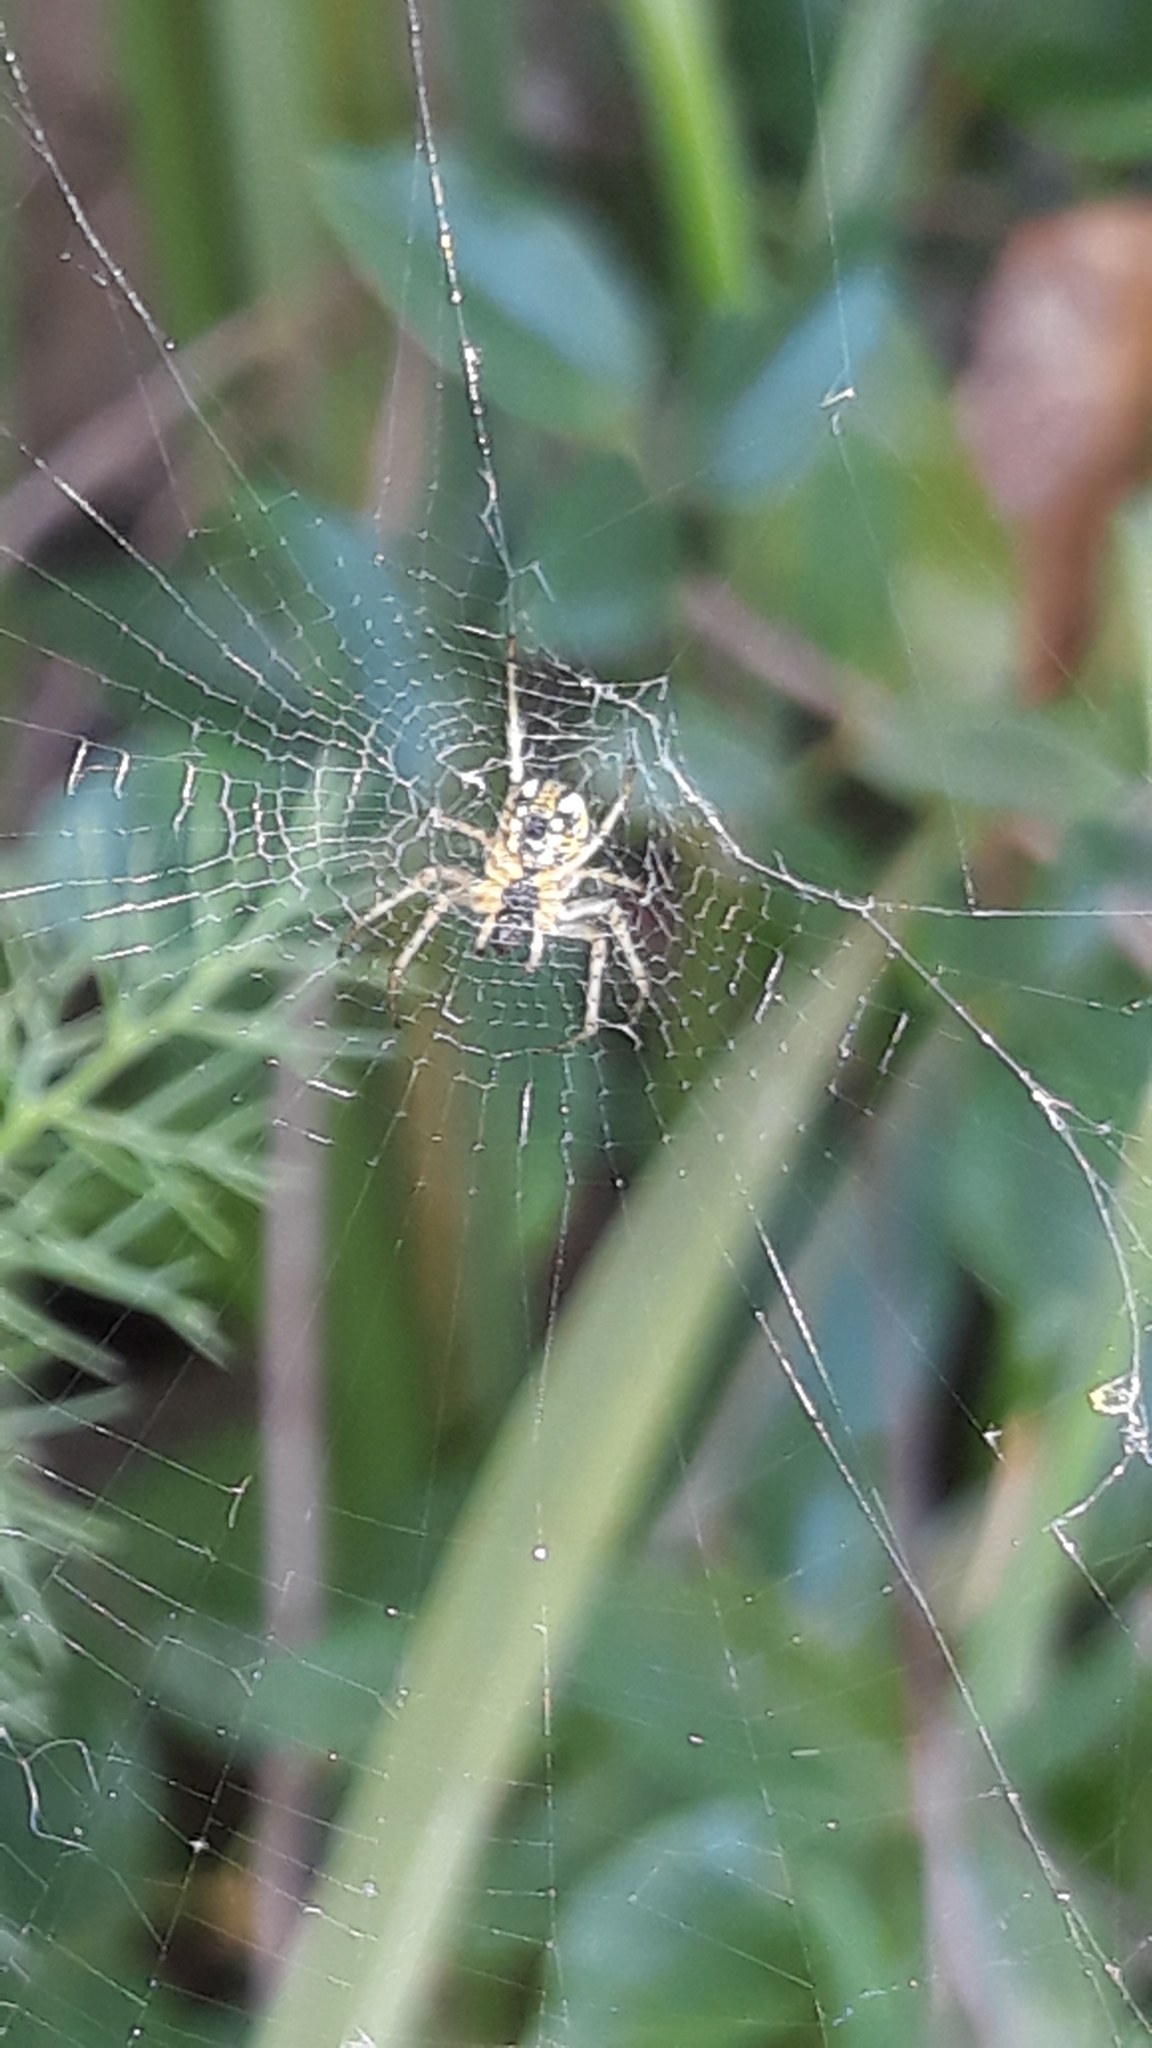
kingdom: Animalia
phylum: Arthropoda
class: Arachnida
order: Araneae
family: Araneidae
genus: Mangora
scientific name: Mangora acalypha
